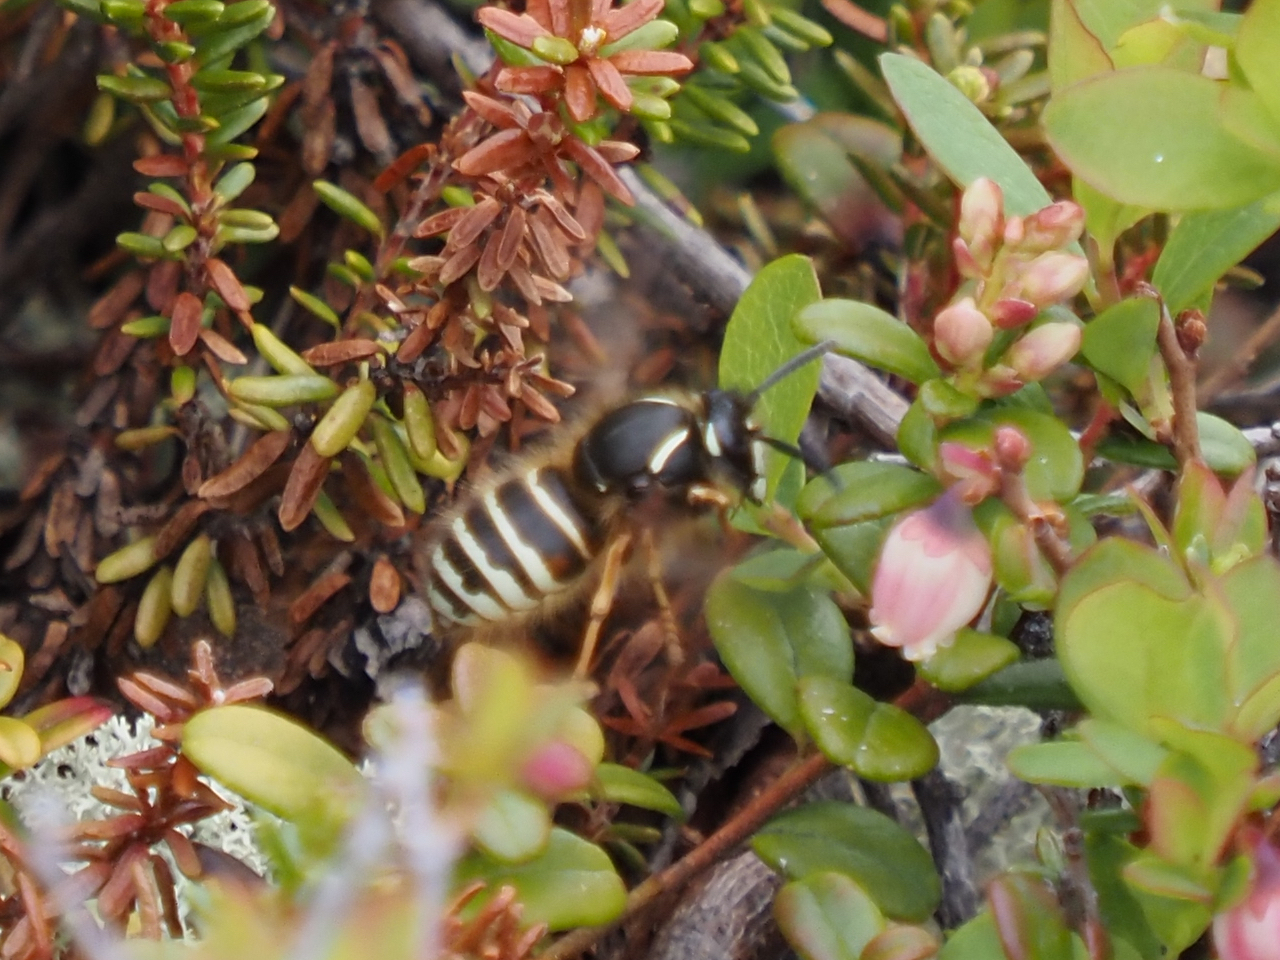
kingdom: Animalia
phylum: Arthropoda
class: Insecta
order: Hymenoptera
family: Vespidae
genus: Dolichovespula
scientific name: Dolichovespula norwegica
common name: Norwegian wasp
